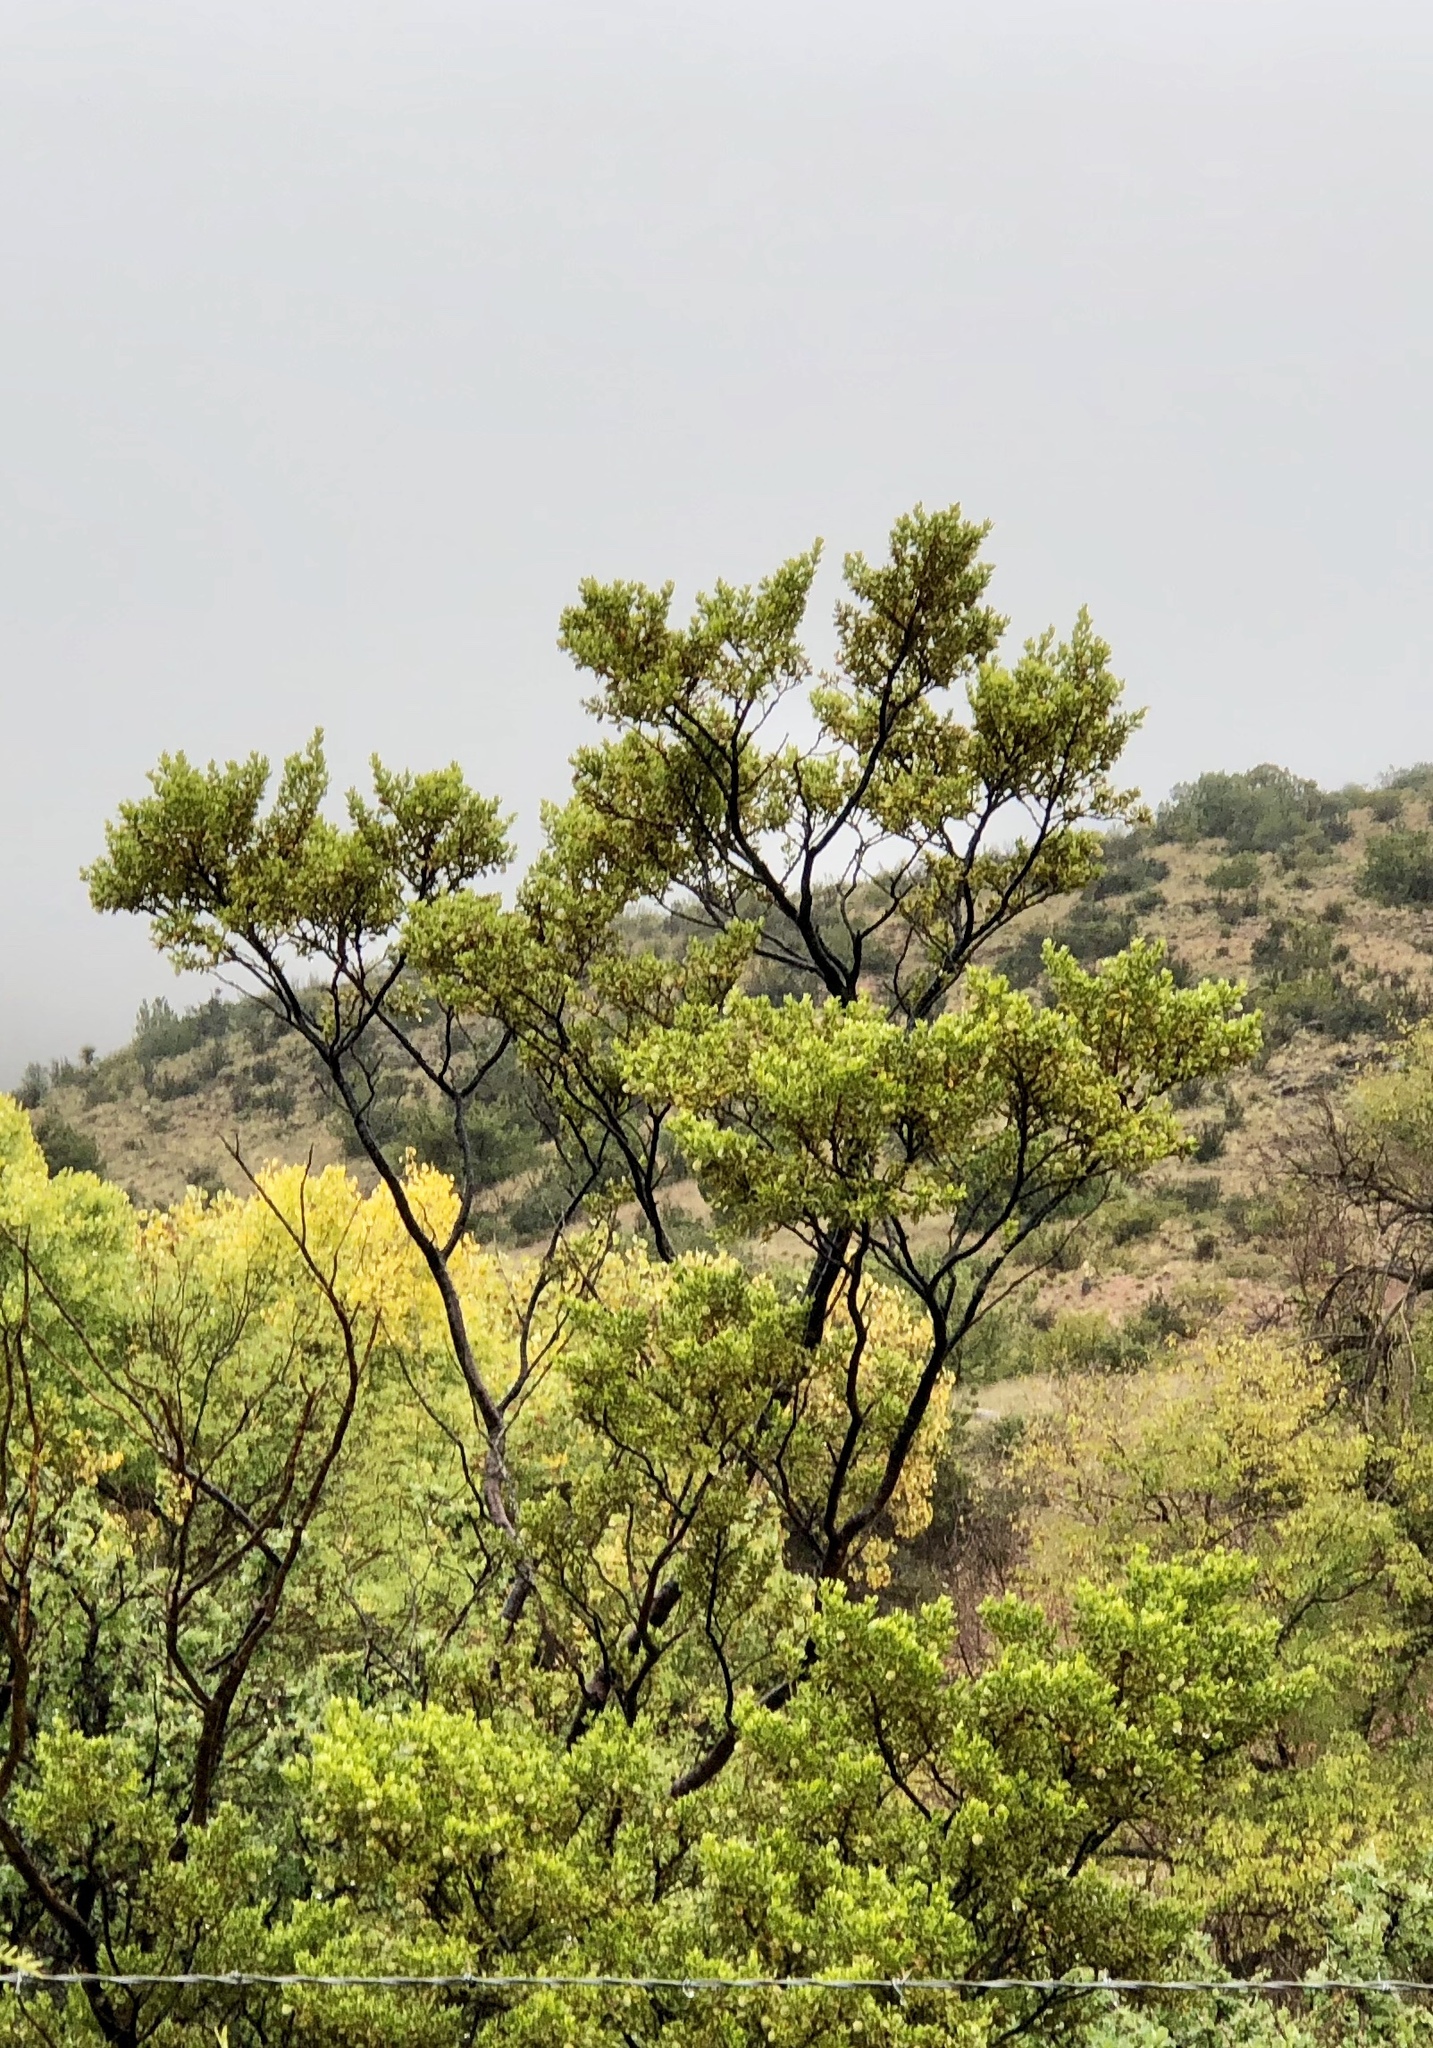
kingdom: Plantae
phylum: Tracheophyta
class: Magnoliopsida
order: Zygophyllales
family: Zygophyllaceae
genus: Larrea
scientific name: Larrea tridentata
